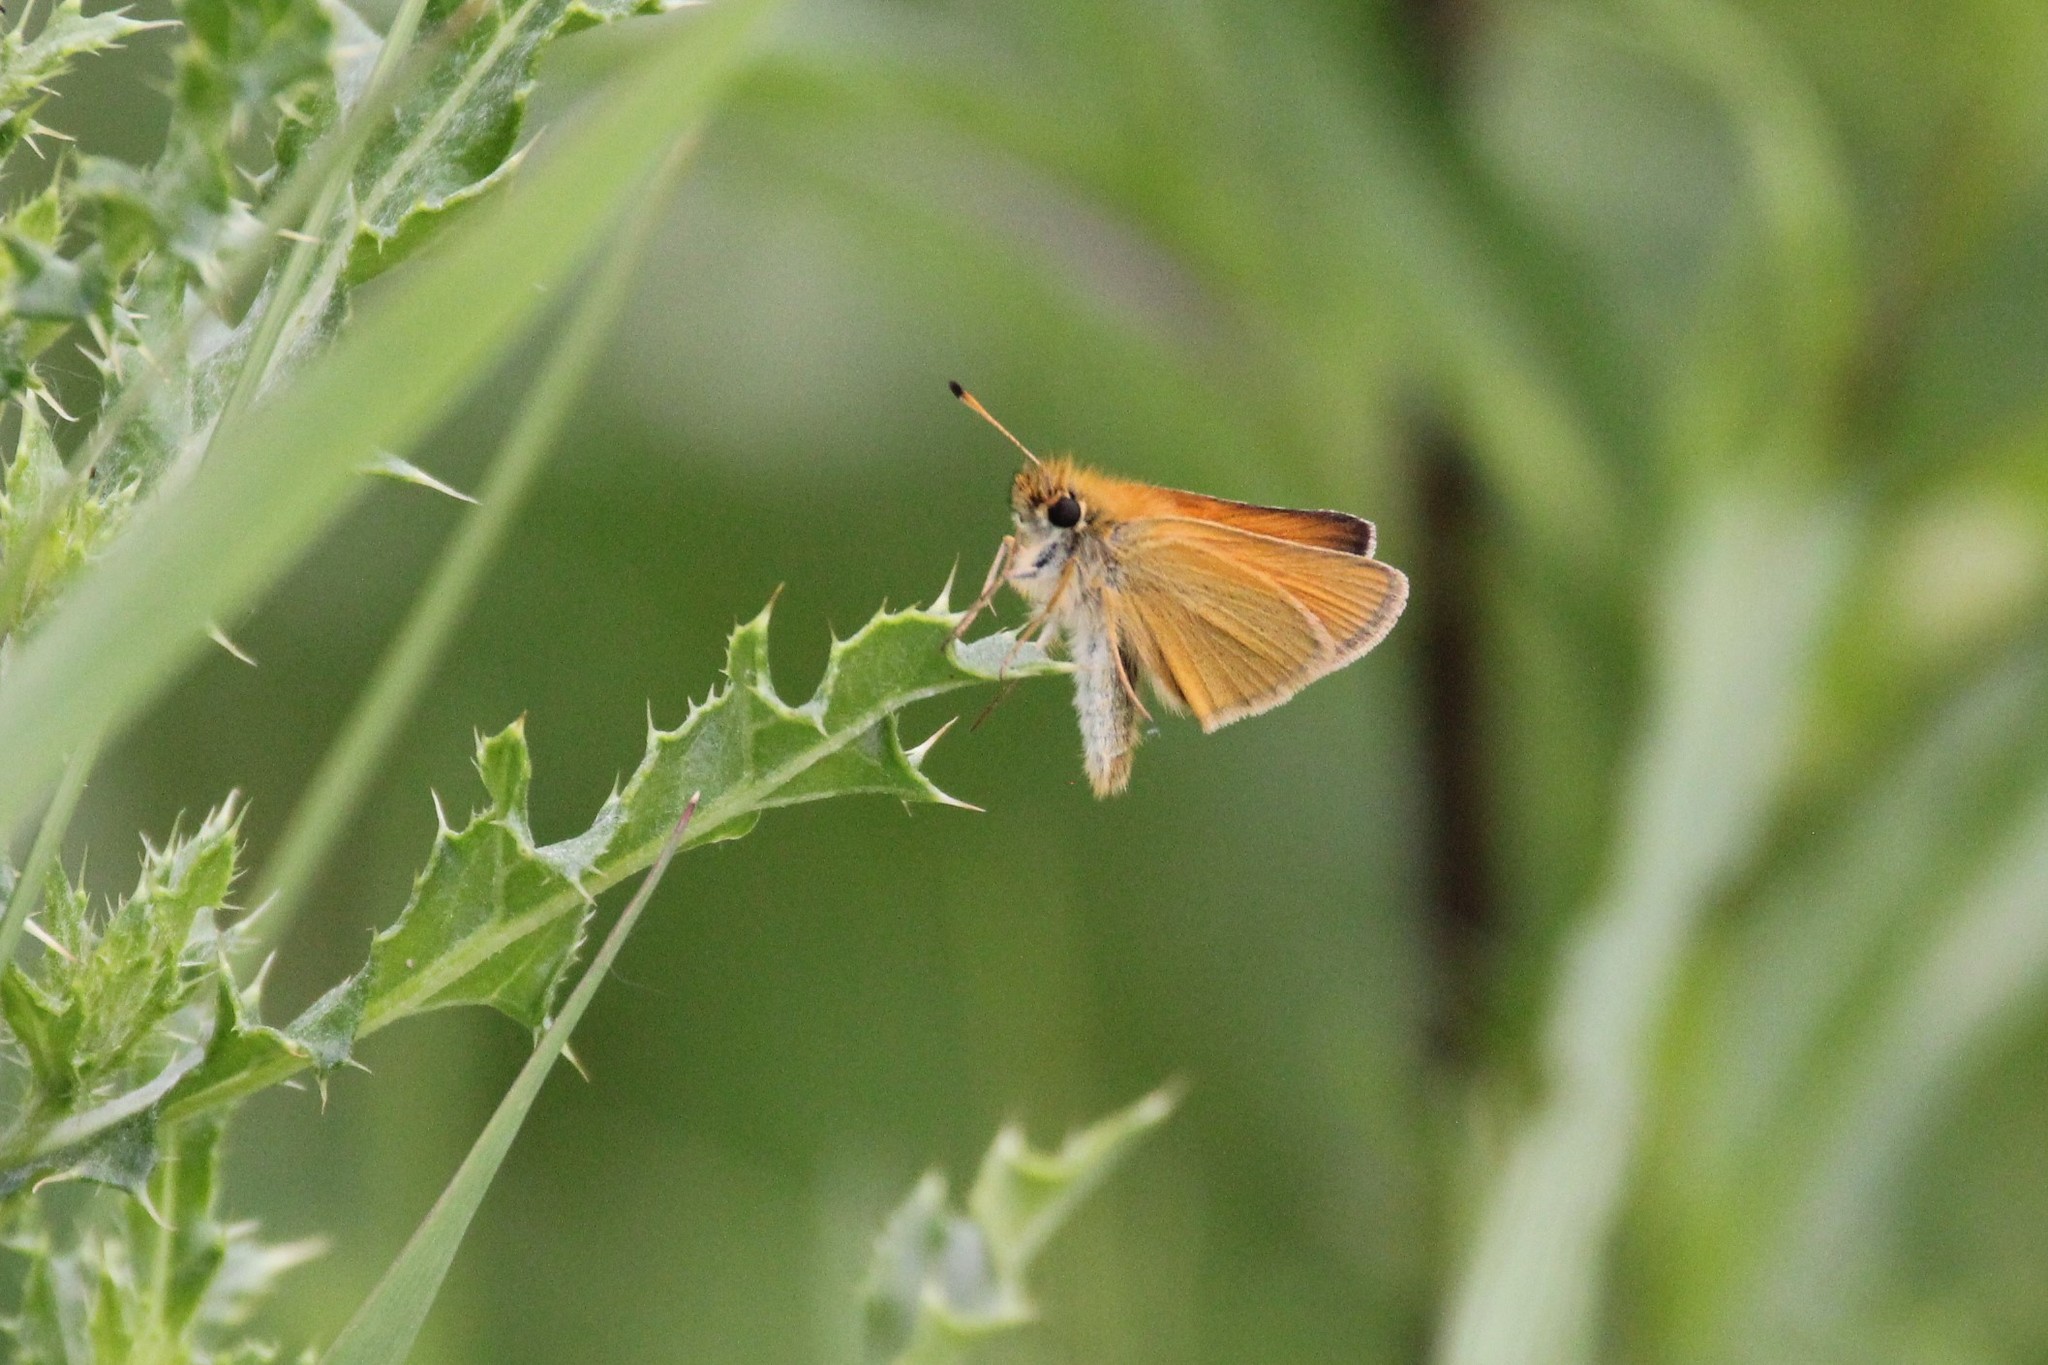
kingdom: Animalia
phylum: Arthropoda
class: Insecta
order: Lepidoptera
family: Hesperiidae
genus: Thymelicus
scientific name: Thymelicus lineola
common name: Essex skipper
